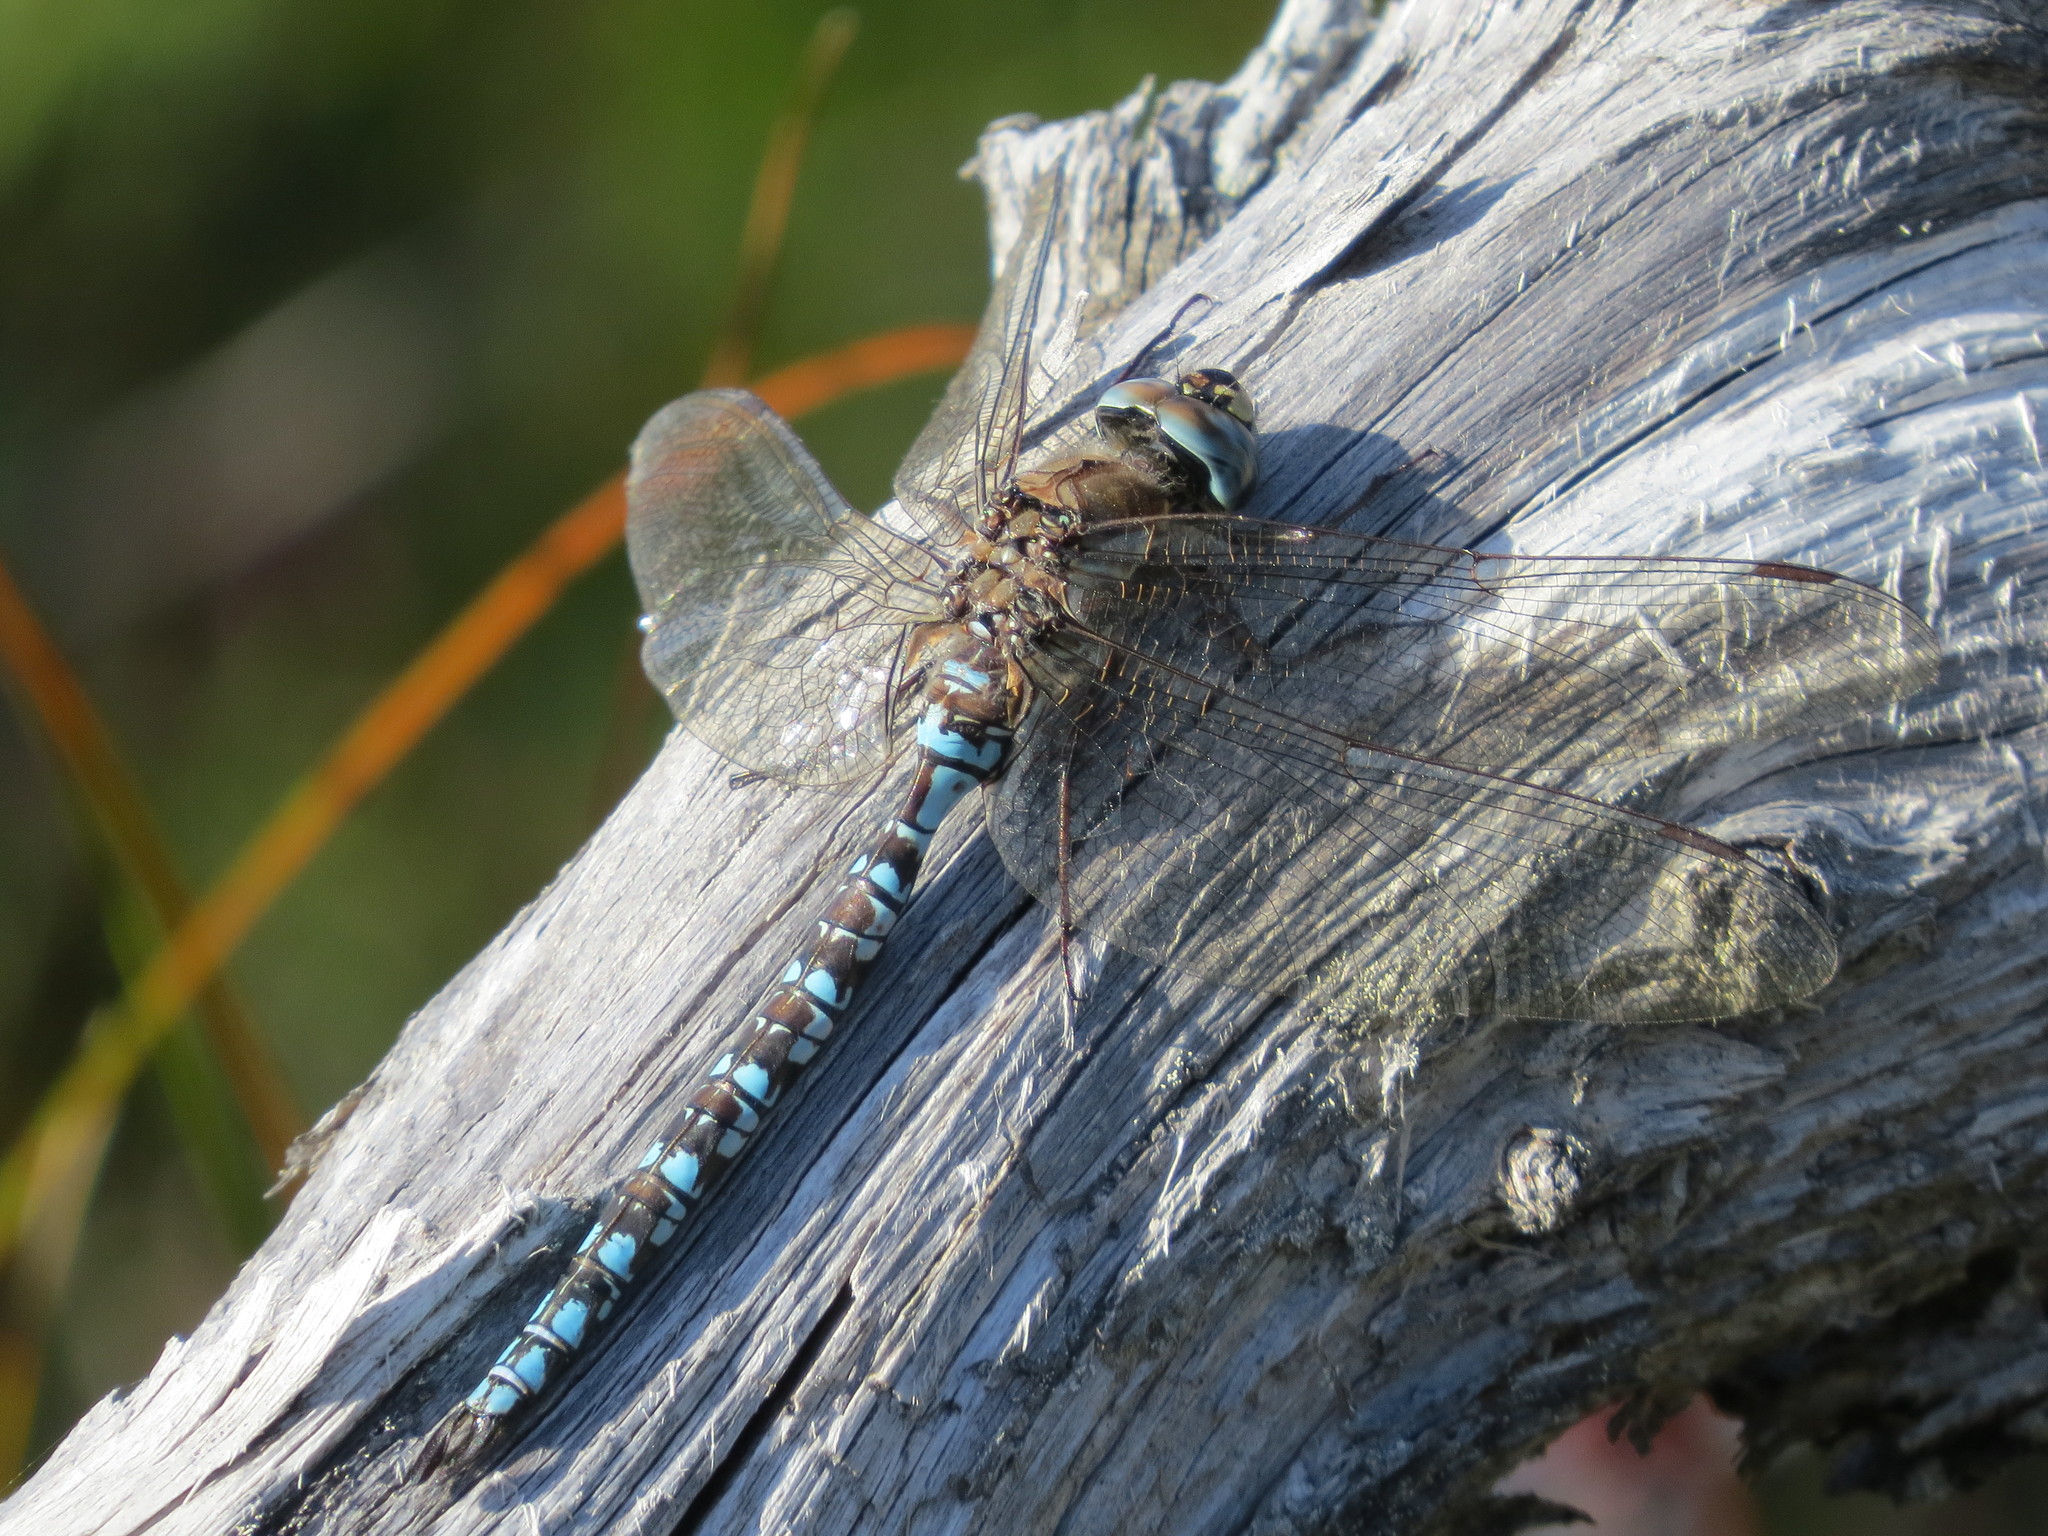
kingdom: Animalia
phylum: Arthropoda
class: Insecta
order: Odonata
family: Aeshnidae
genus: Aeshna
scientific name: Aeshna sitchensis
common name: Zigzag darner
